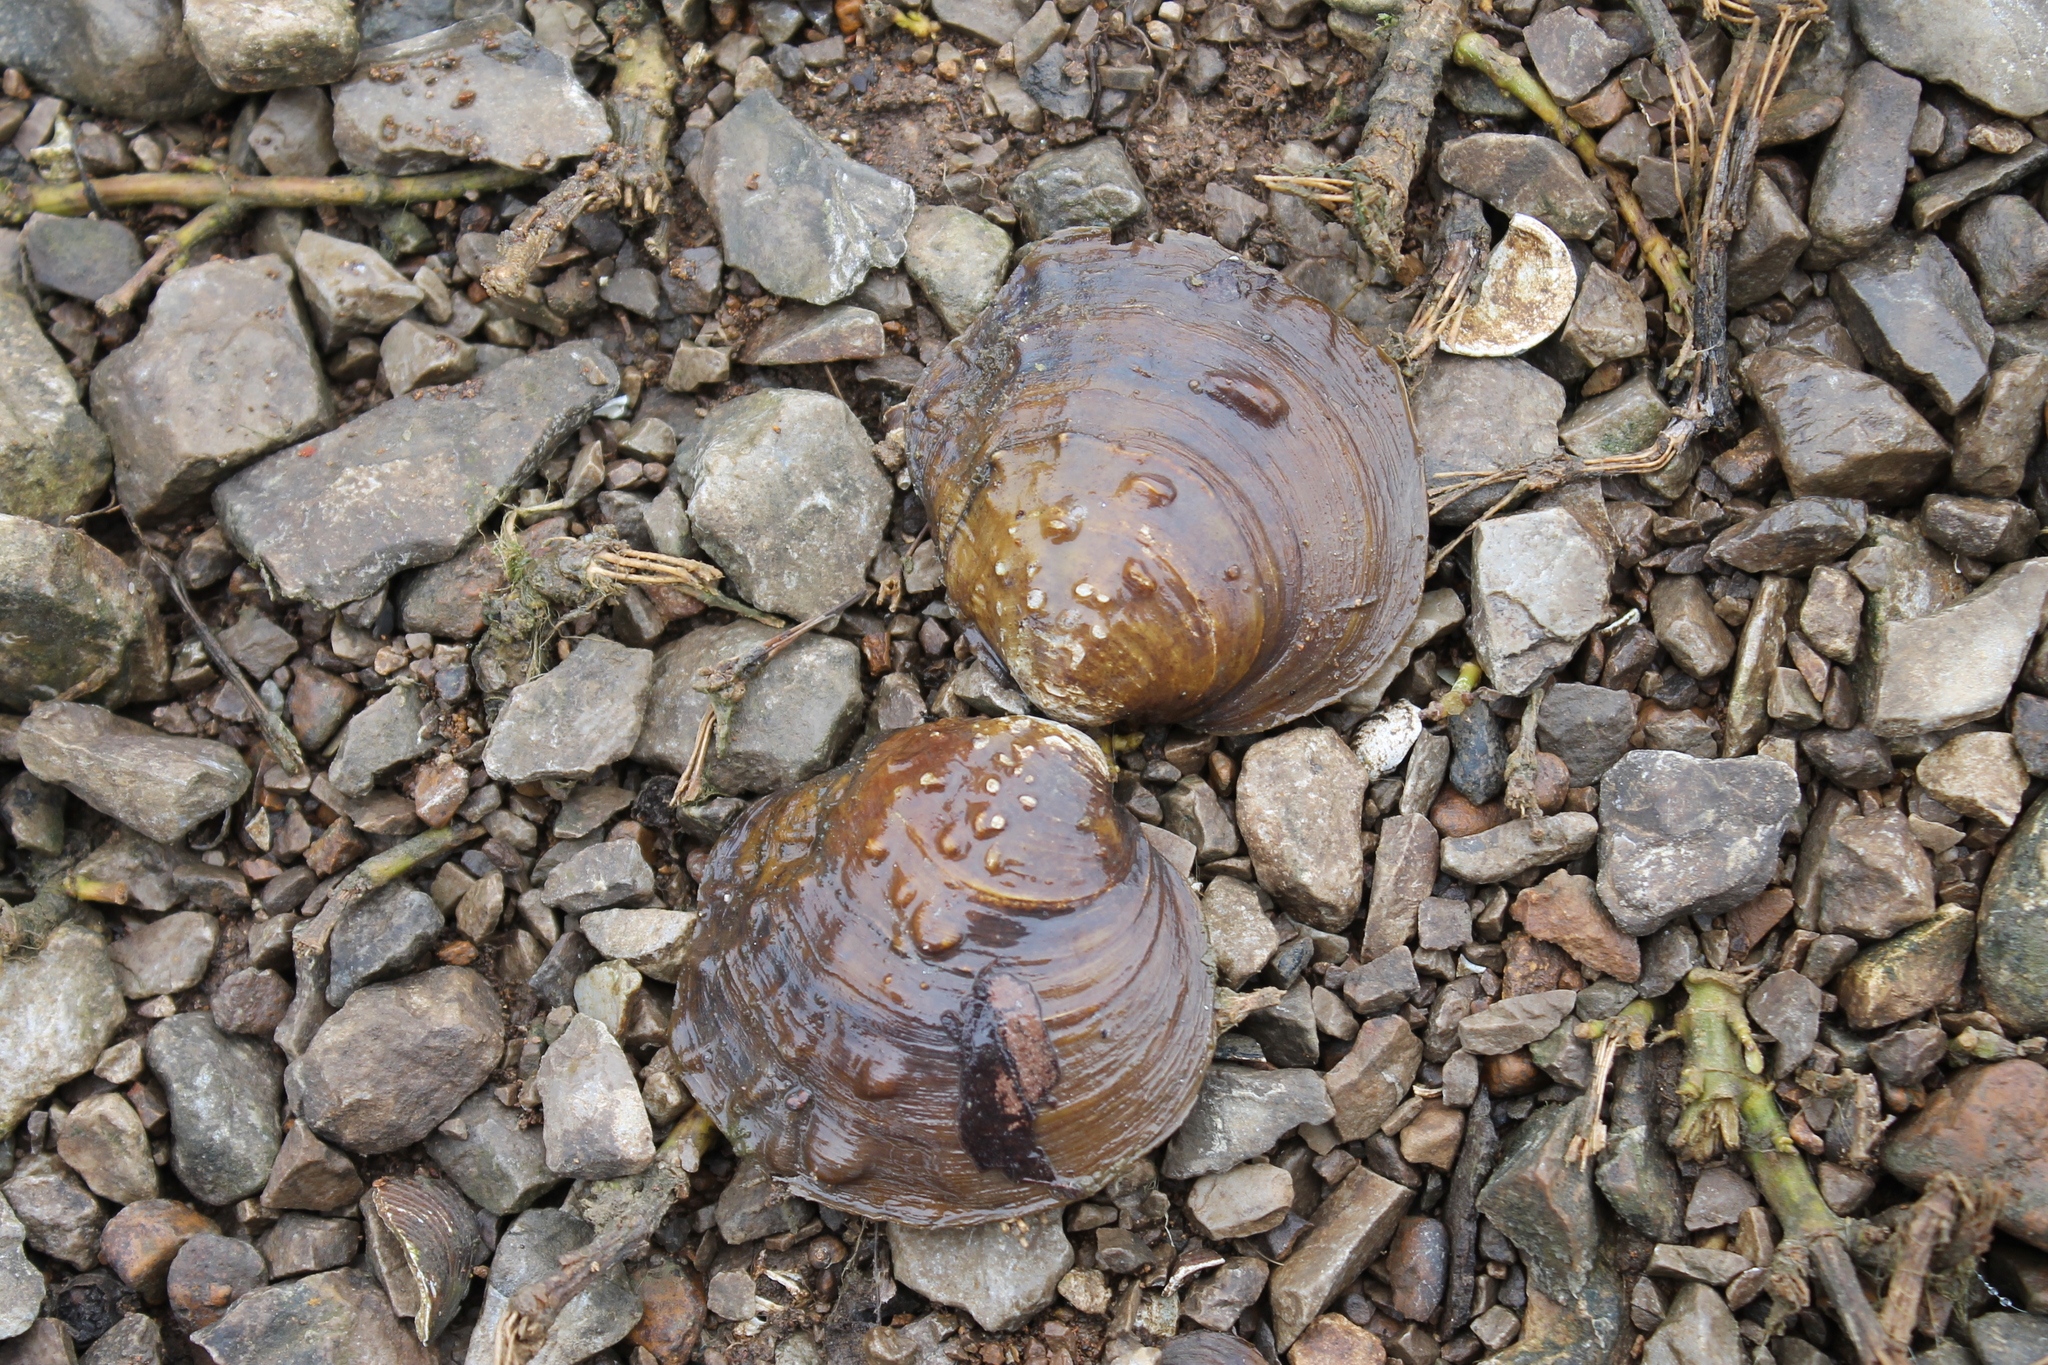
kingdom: Animalia
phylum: Mollusca
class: Bivalvia
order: Unionida
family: Unionidae
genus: Cyclonaias
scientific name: Cyclonaias tuberculata
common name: Purple wartyback
